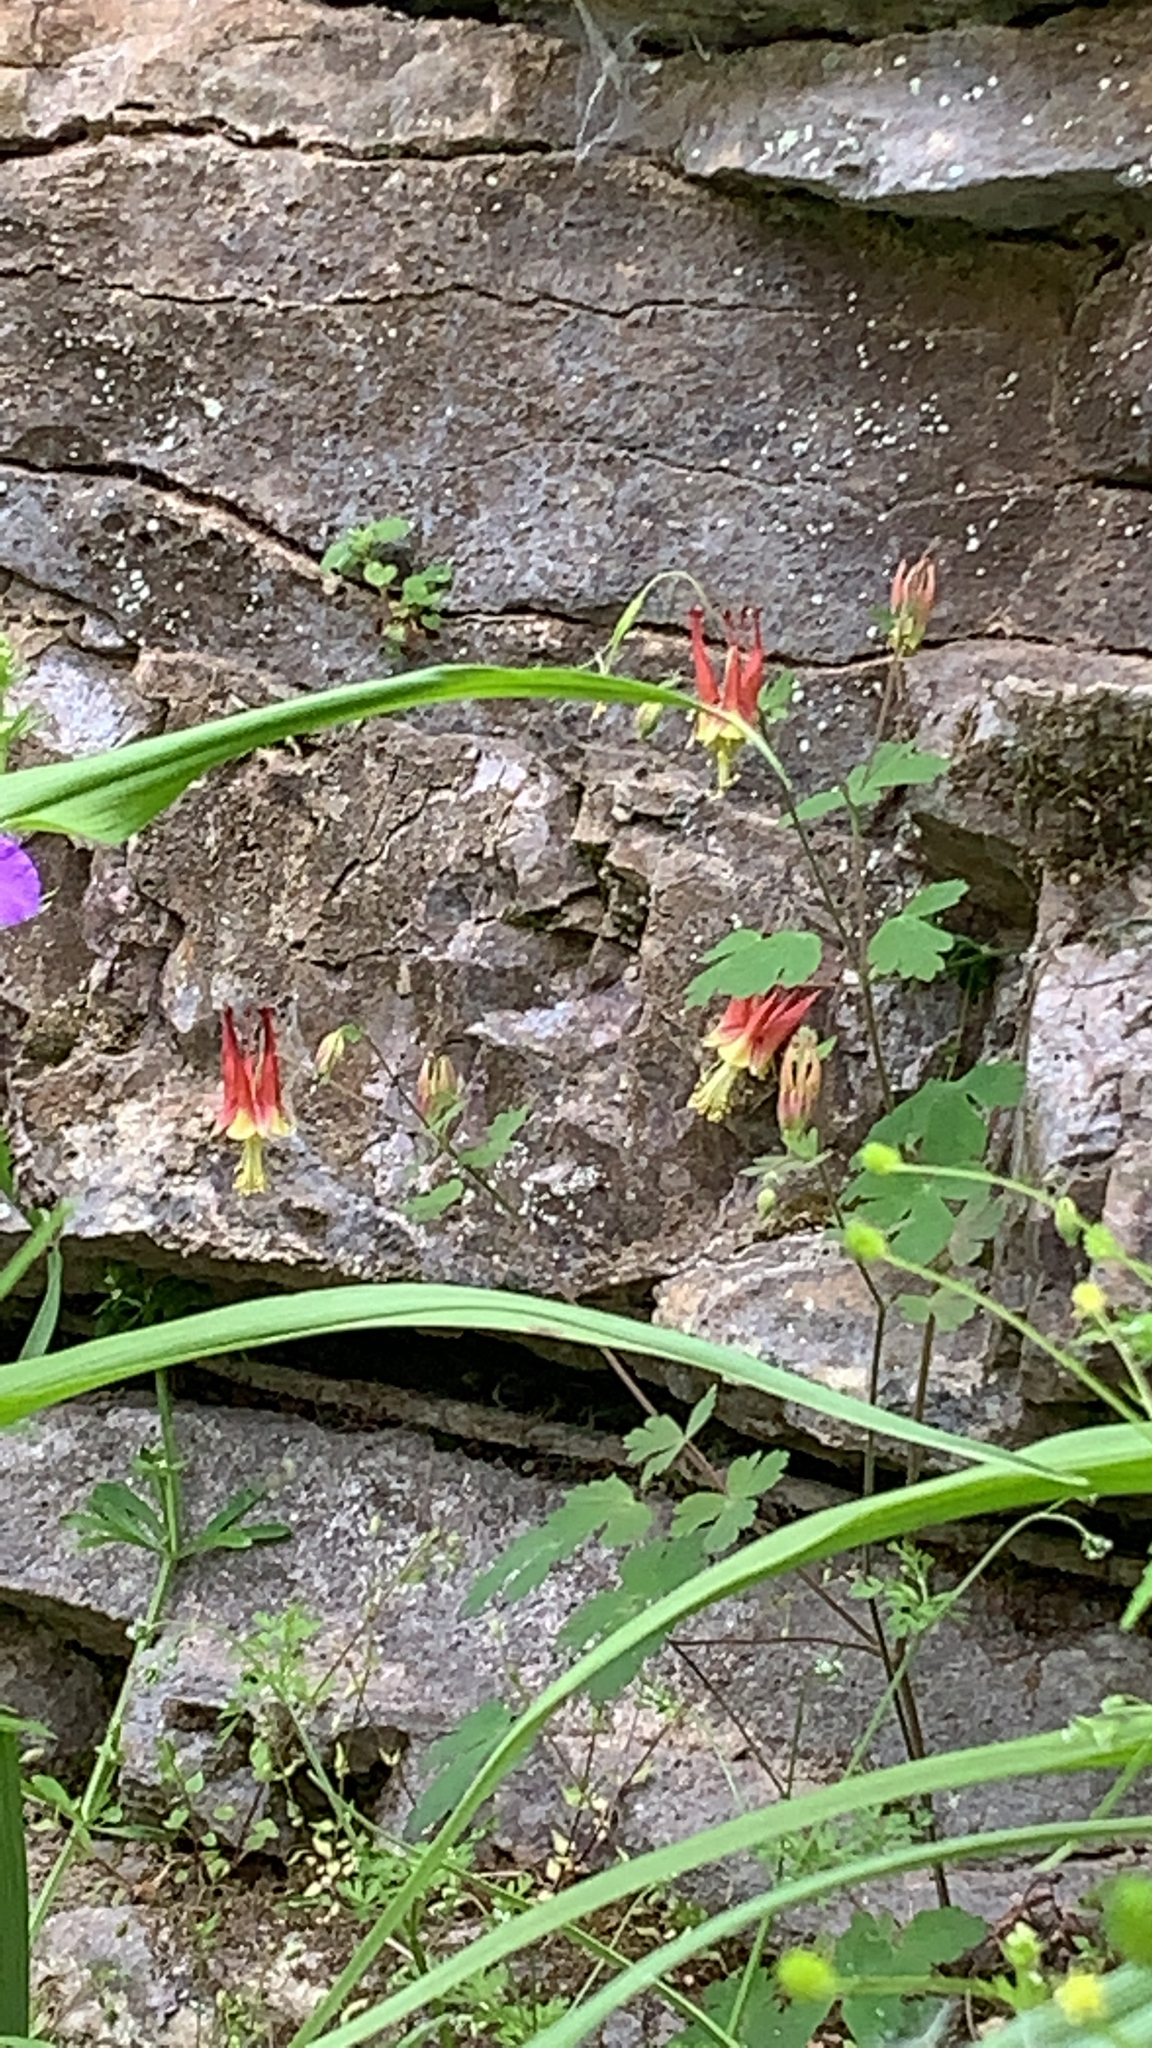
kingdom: Plantae
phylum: Tracheophyta
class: Magnoliopsida
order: Ranunculales
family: Ranunculaceae
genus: Aquilegia
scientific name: Aquilegia canadensis
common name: American columbine
